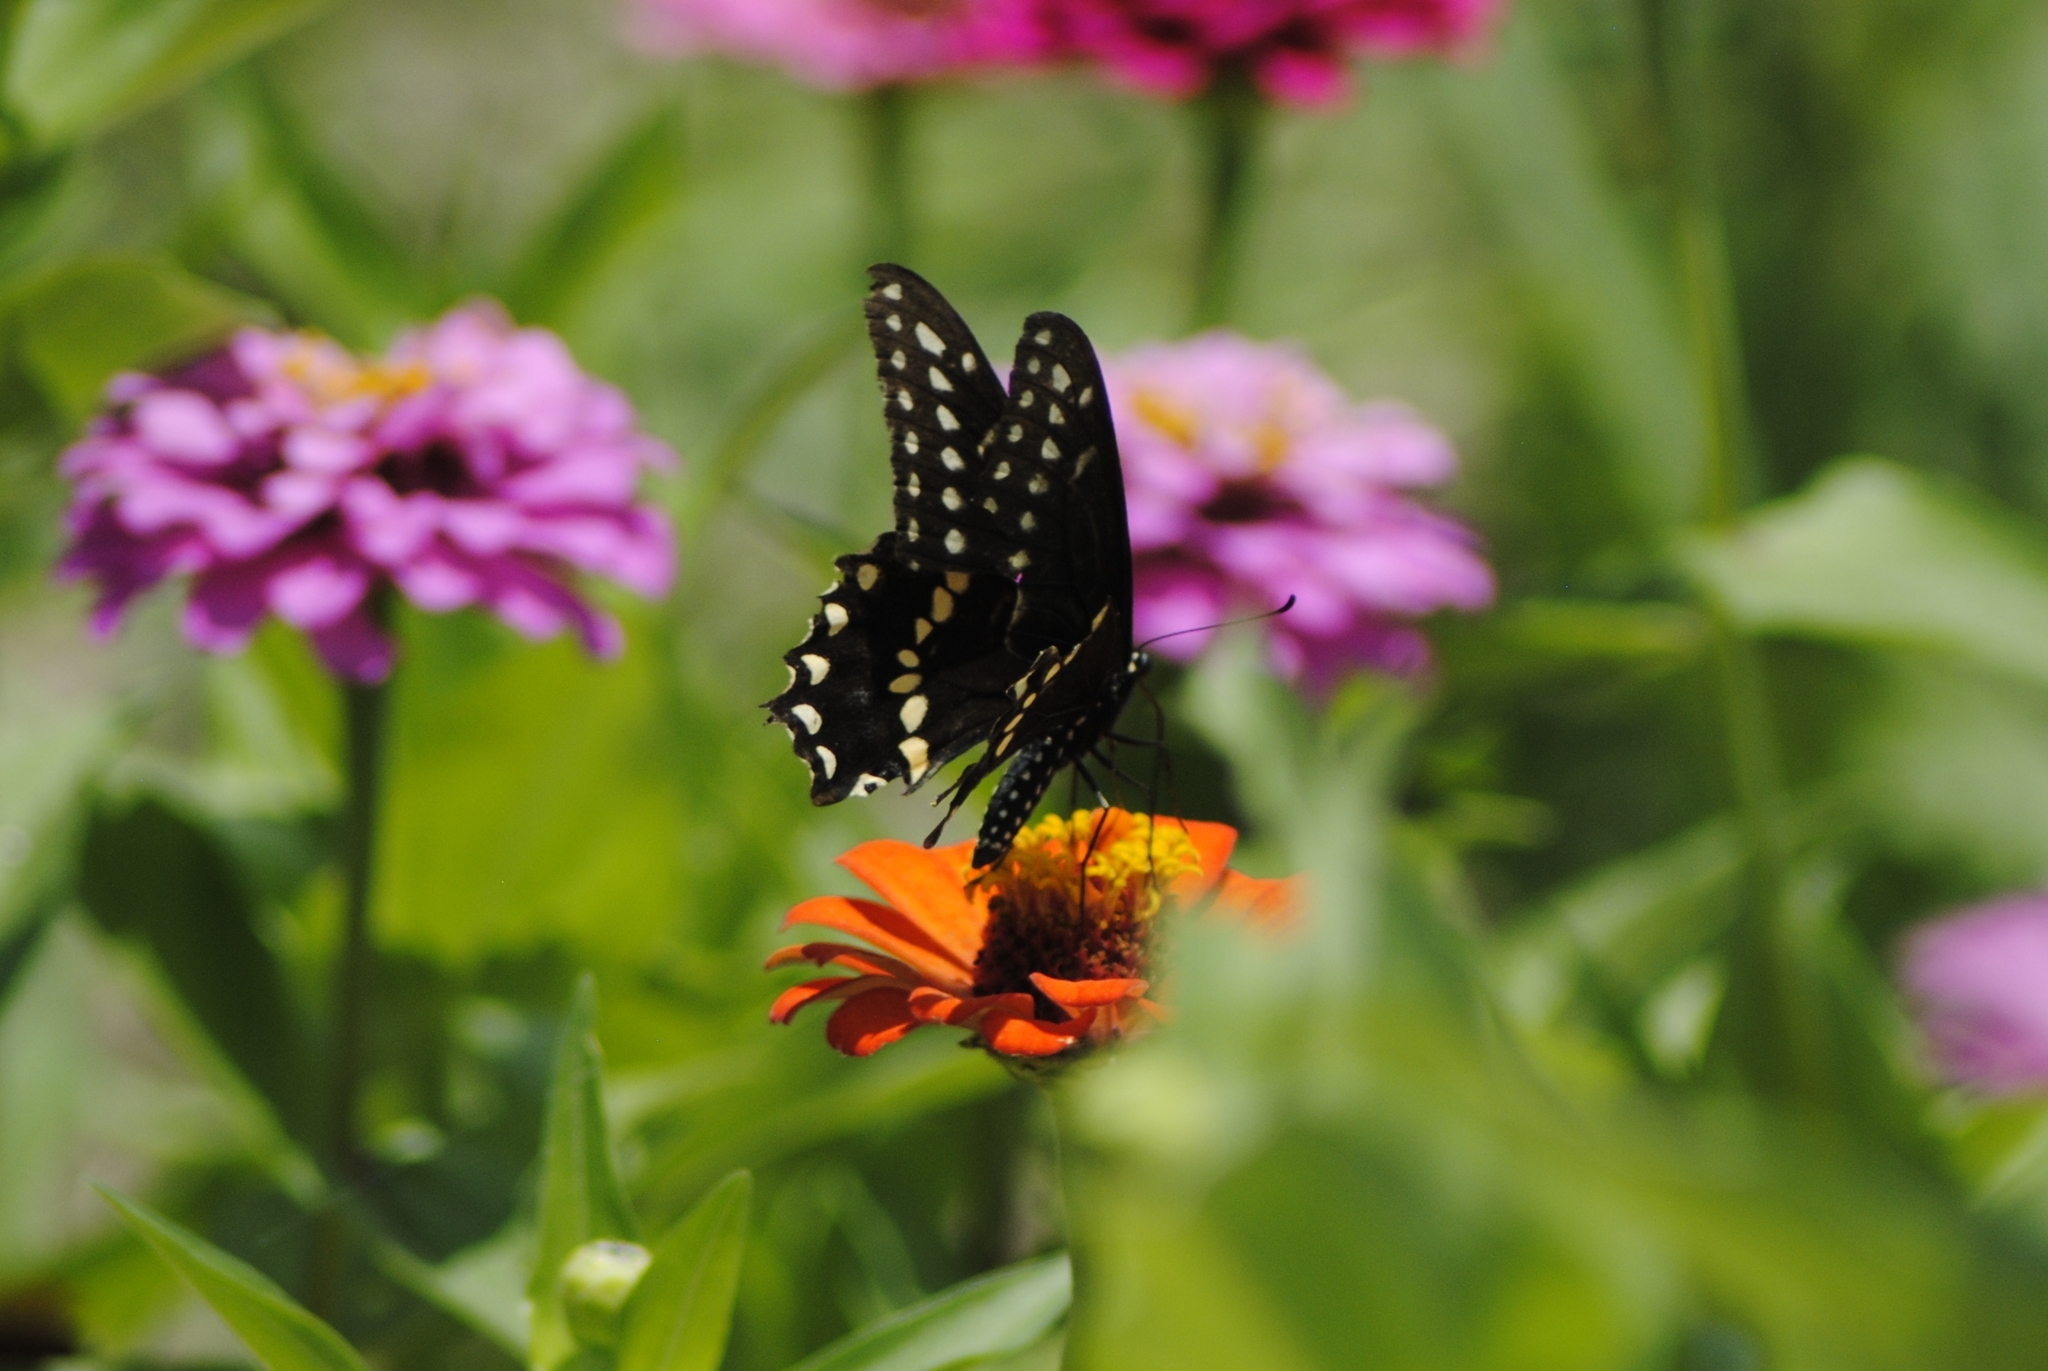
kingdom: Animalia
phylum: Arthropoda
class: Insecta
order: Lepidoptera
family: Papilionidae
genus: Papilio
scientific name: Papilio polyxenes
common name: Black swallowtail
